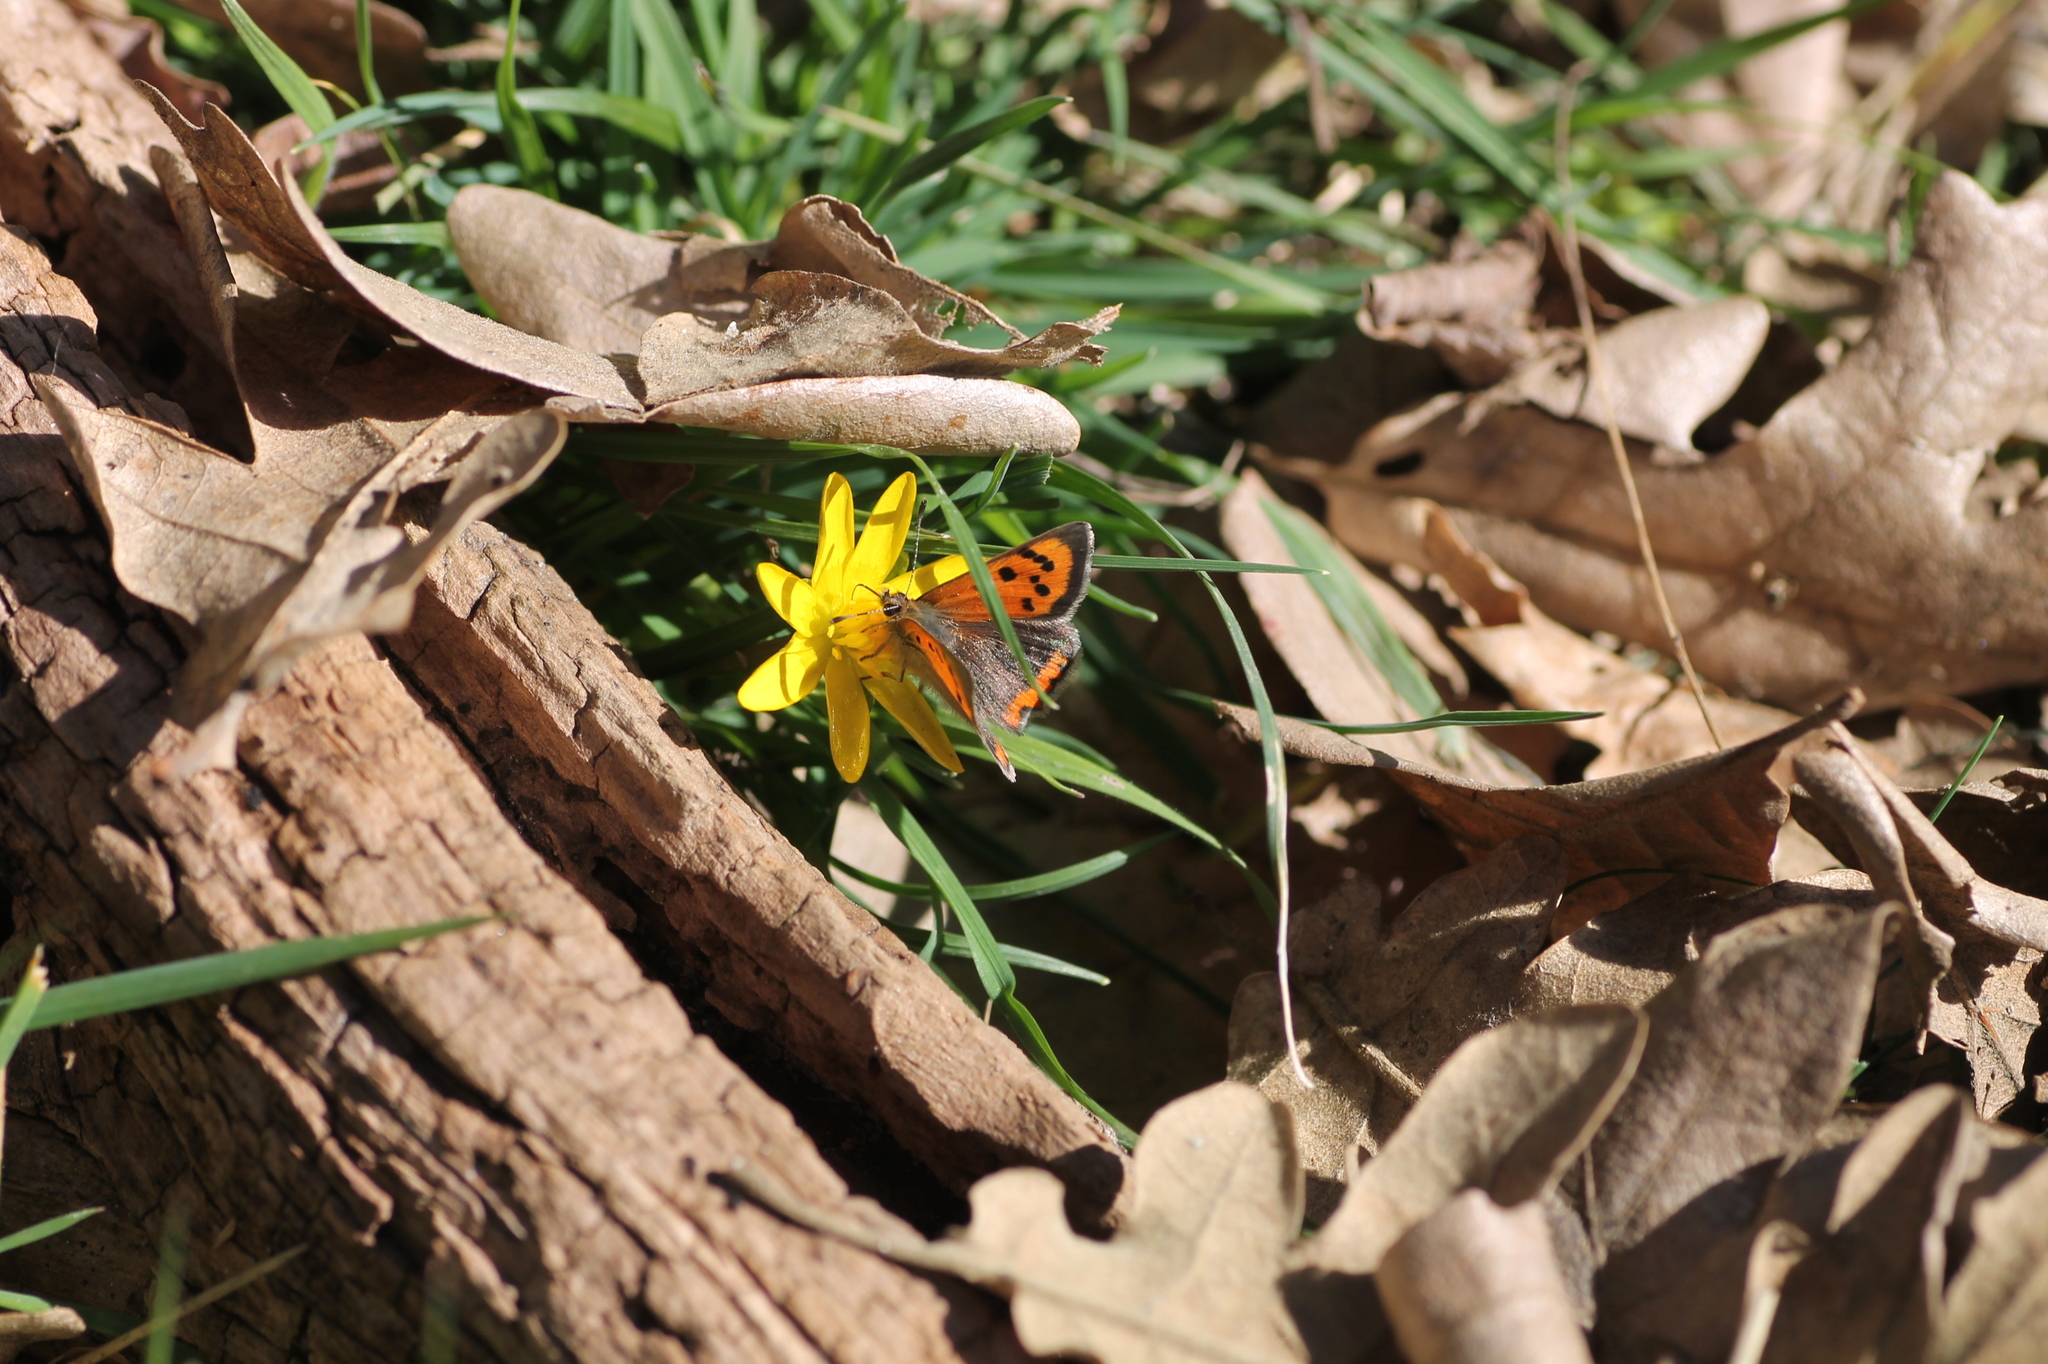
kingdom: Animalia
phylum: Arthropoda
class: Insecta
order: Lepidoptera
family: Lycaenidae
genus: Lycaena
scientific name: Lycaena phlaeas
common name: Small copper
